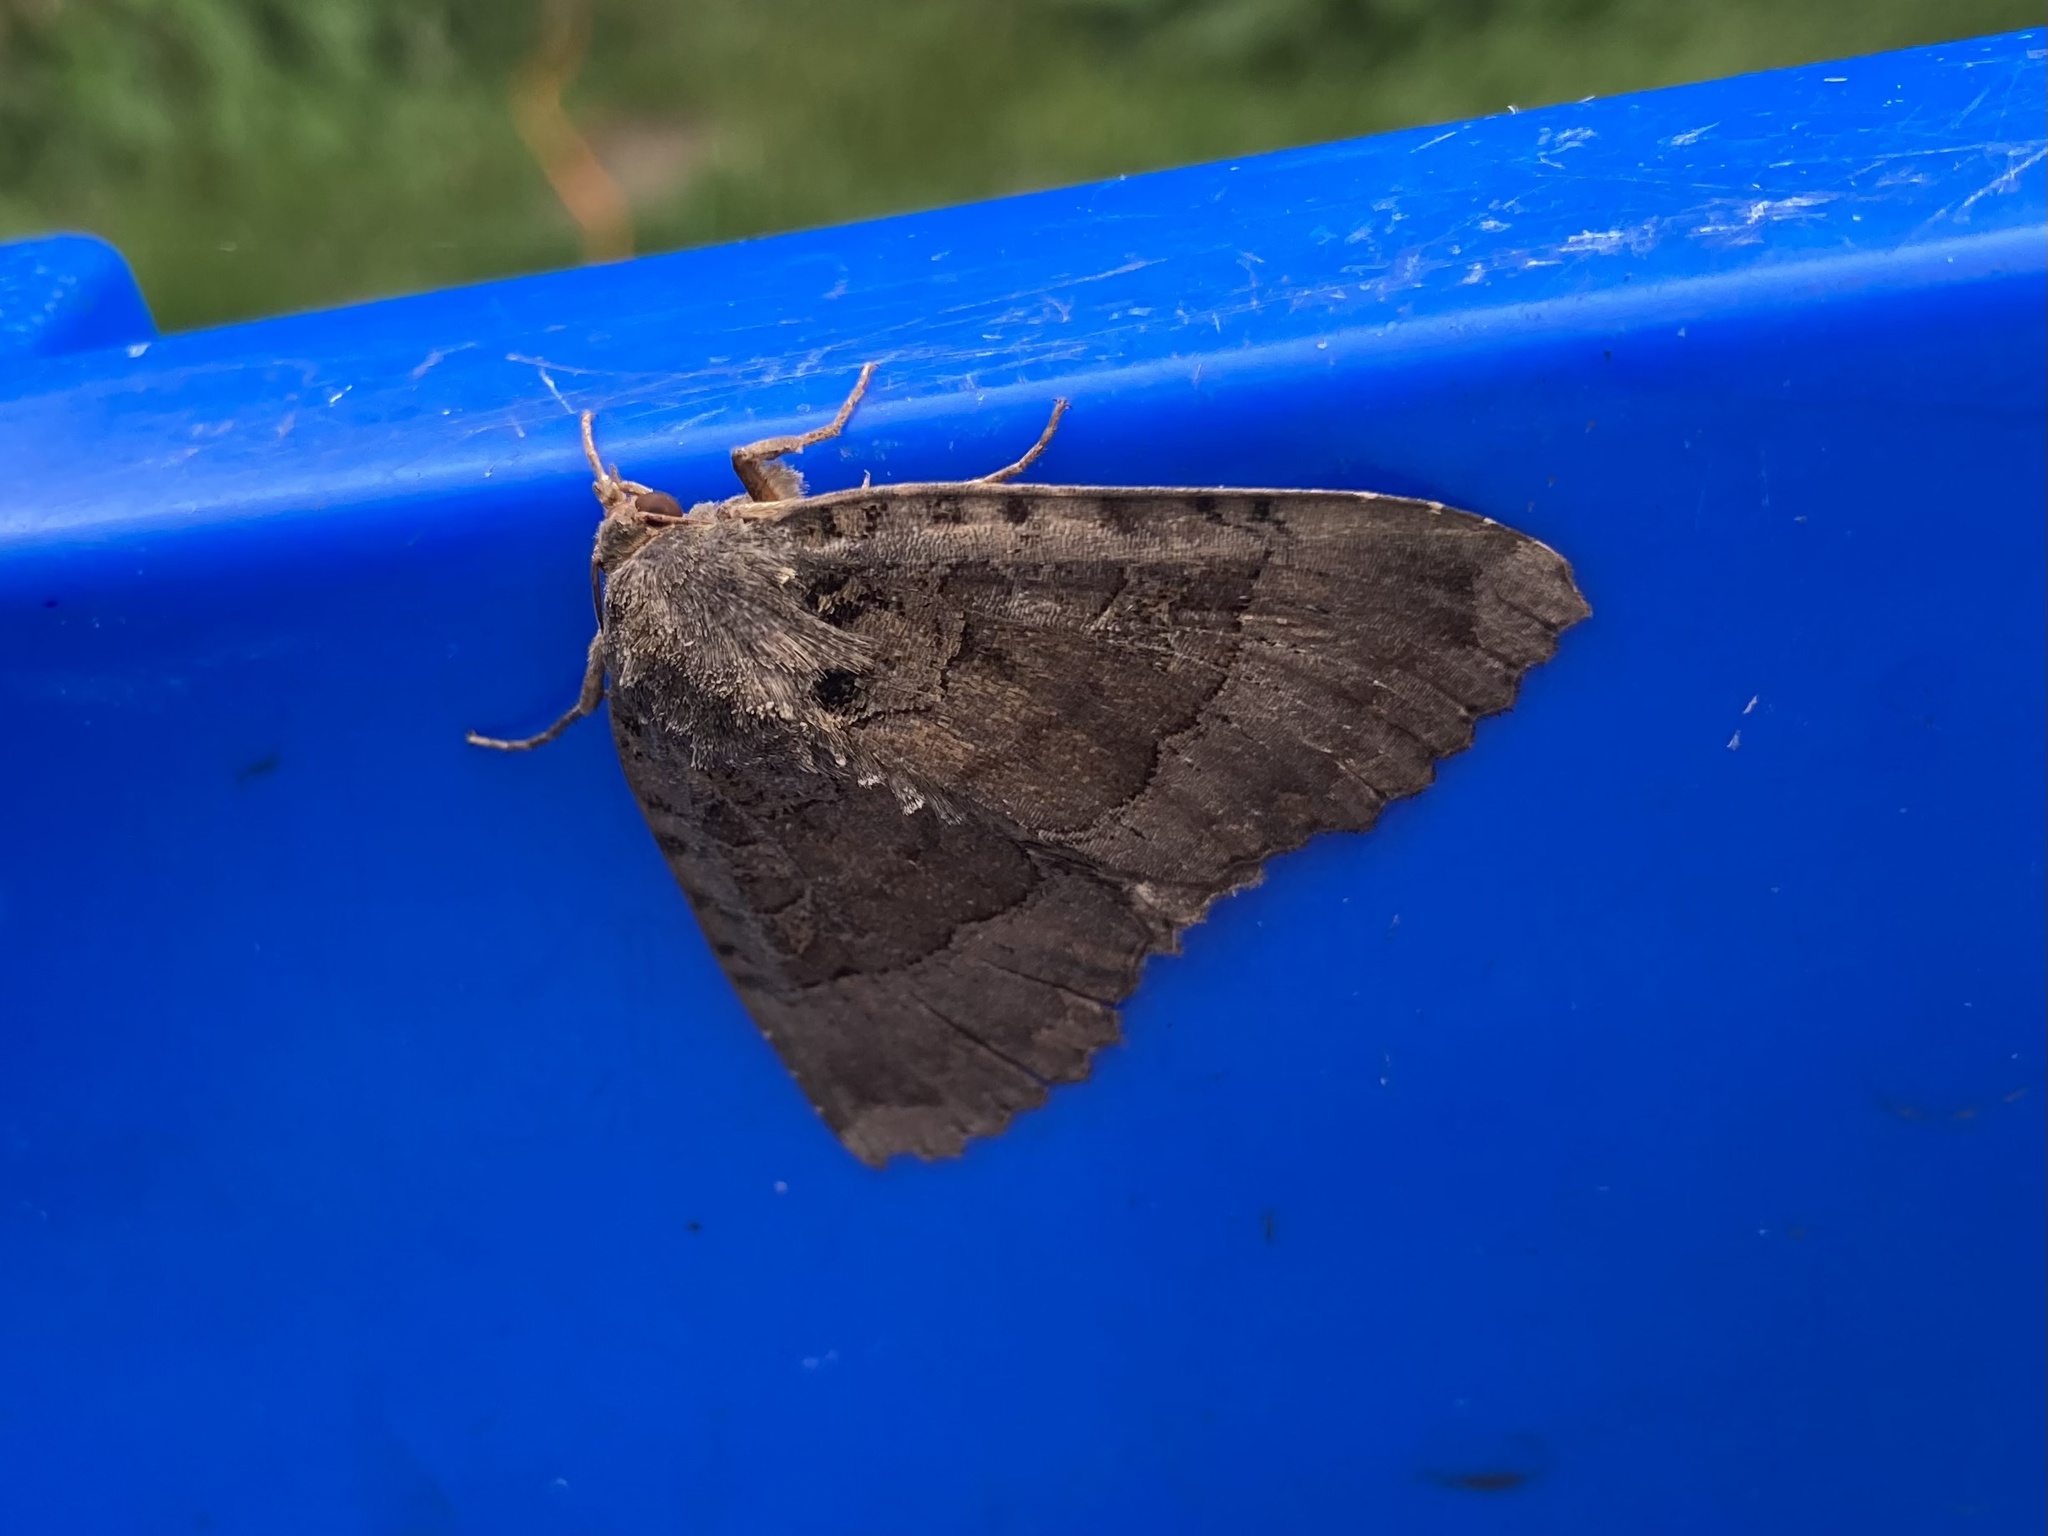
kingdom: Animalia
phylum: Arthropoda
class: Insecta
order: Lepidoptera
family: Noctuidae
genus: Mormo
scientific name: Mormo maura
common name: Old lady
